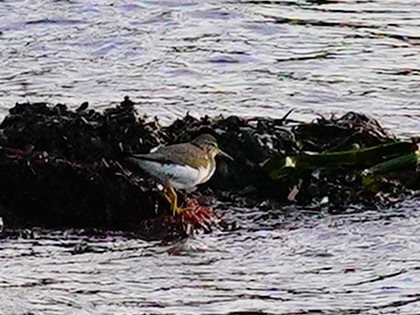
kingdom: Animalia
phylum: Chordata
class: Aves
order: Charadriiformes
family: Scolopacidae
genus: Actitis
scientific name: Actitis macularius
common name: Spotted sandpiper
